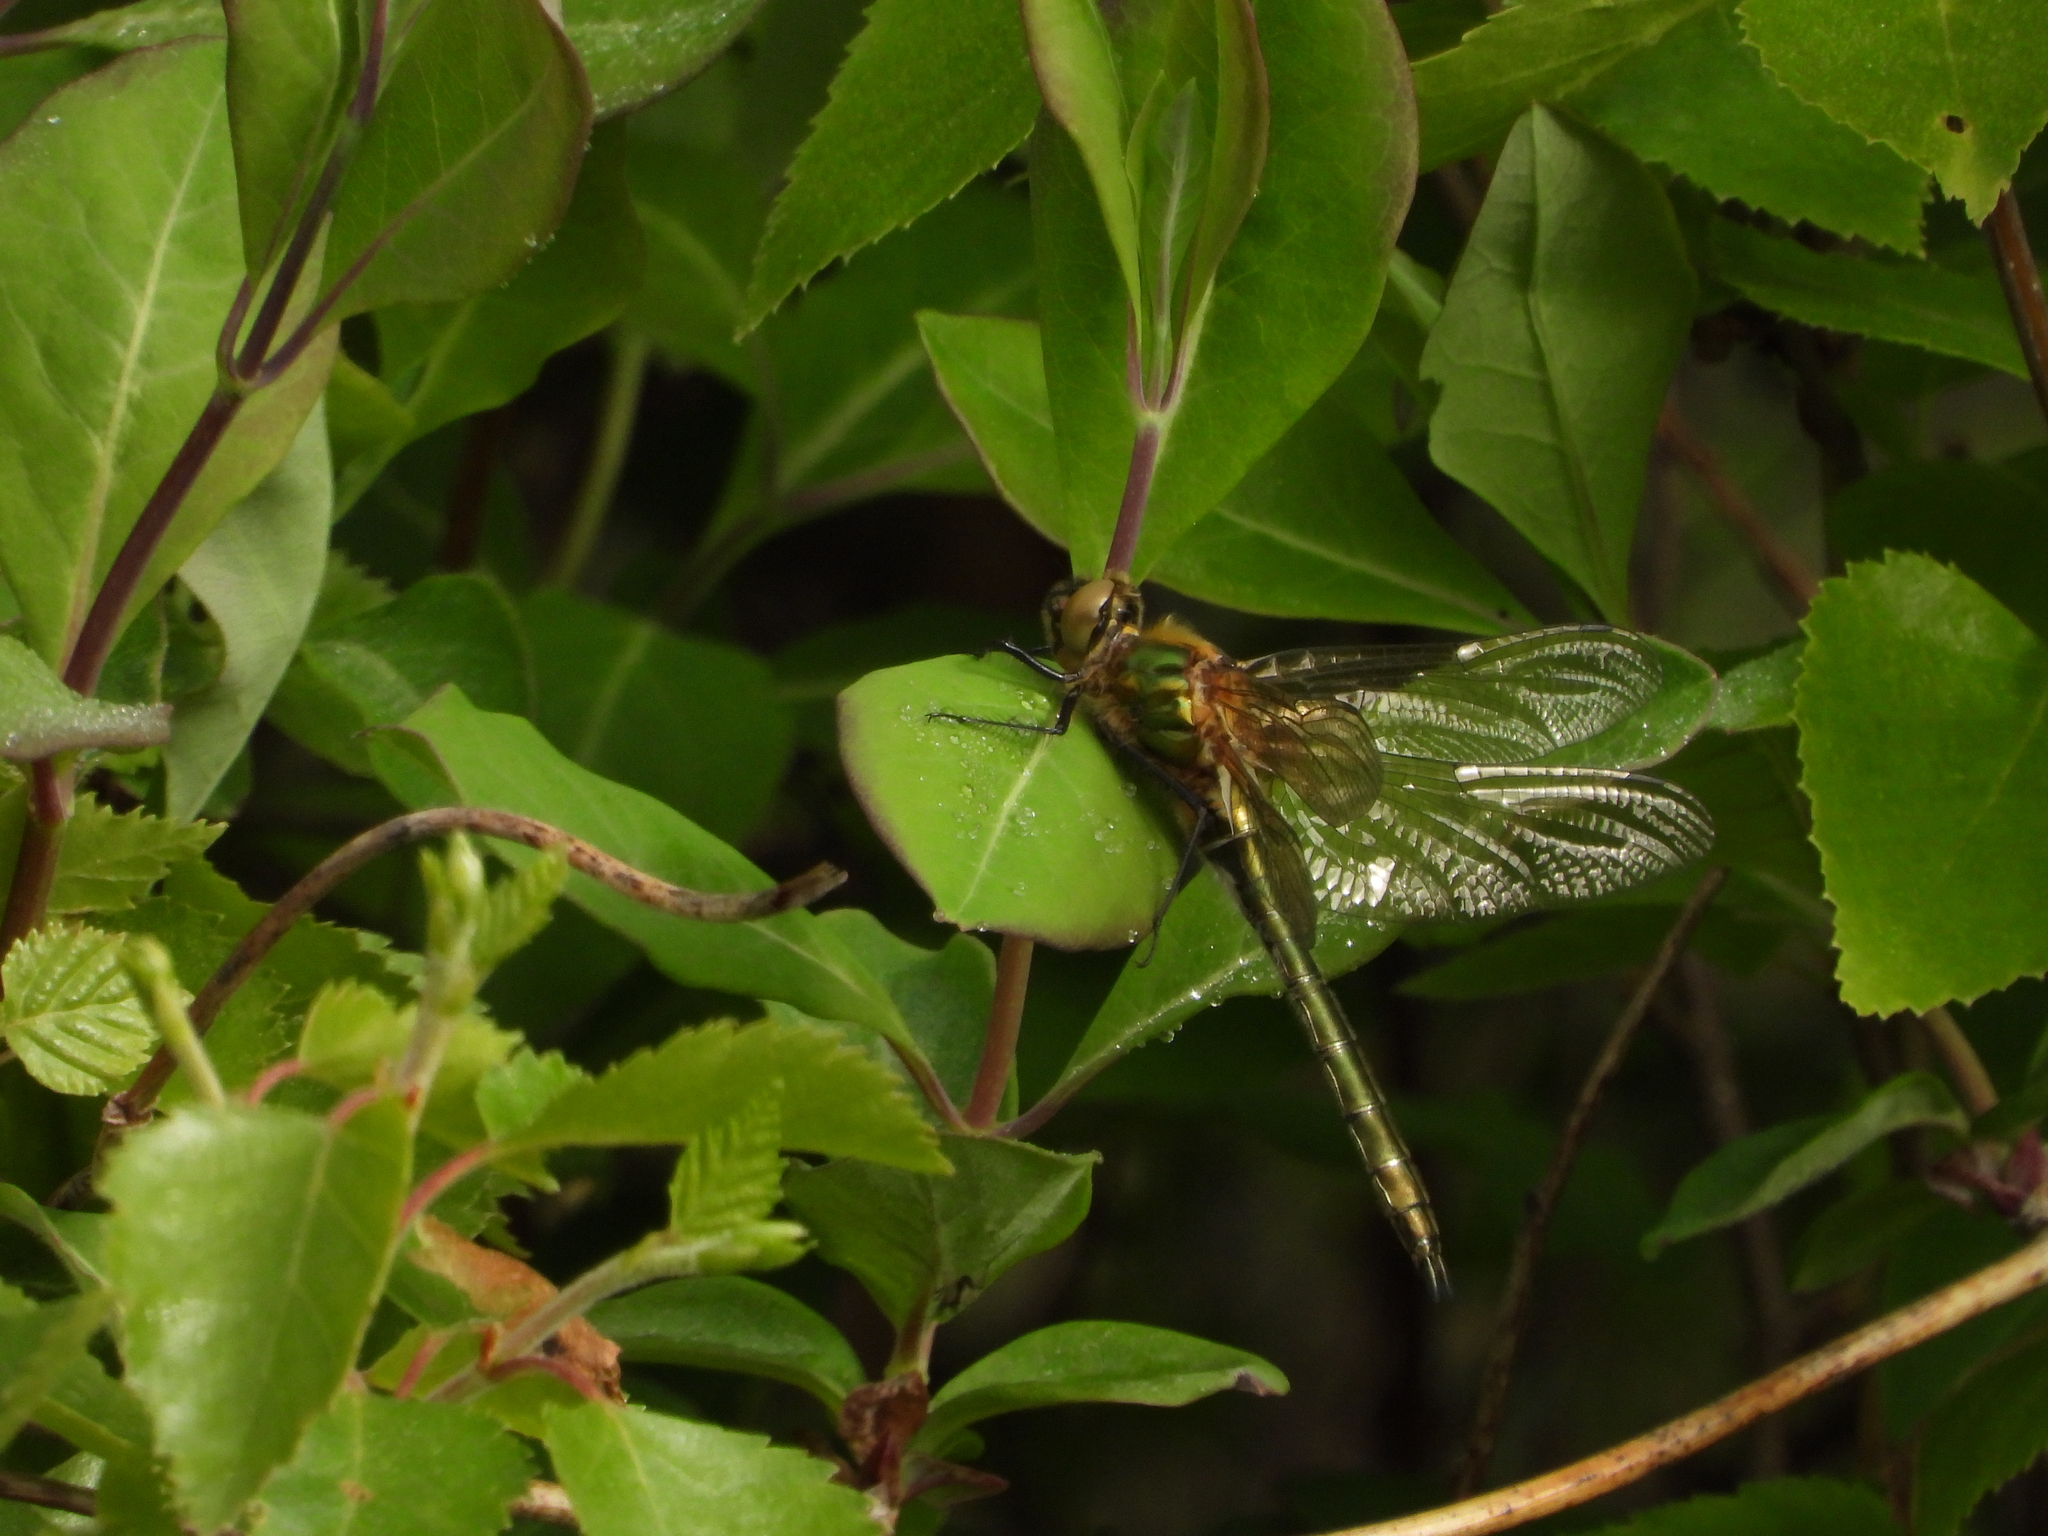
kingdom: Animalia
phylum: Arthropoda
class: Insecta
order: Odonata
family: Corduliidae
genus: Cordulia
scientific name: Cordulia aenea
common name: Downy emerald
